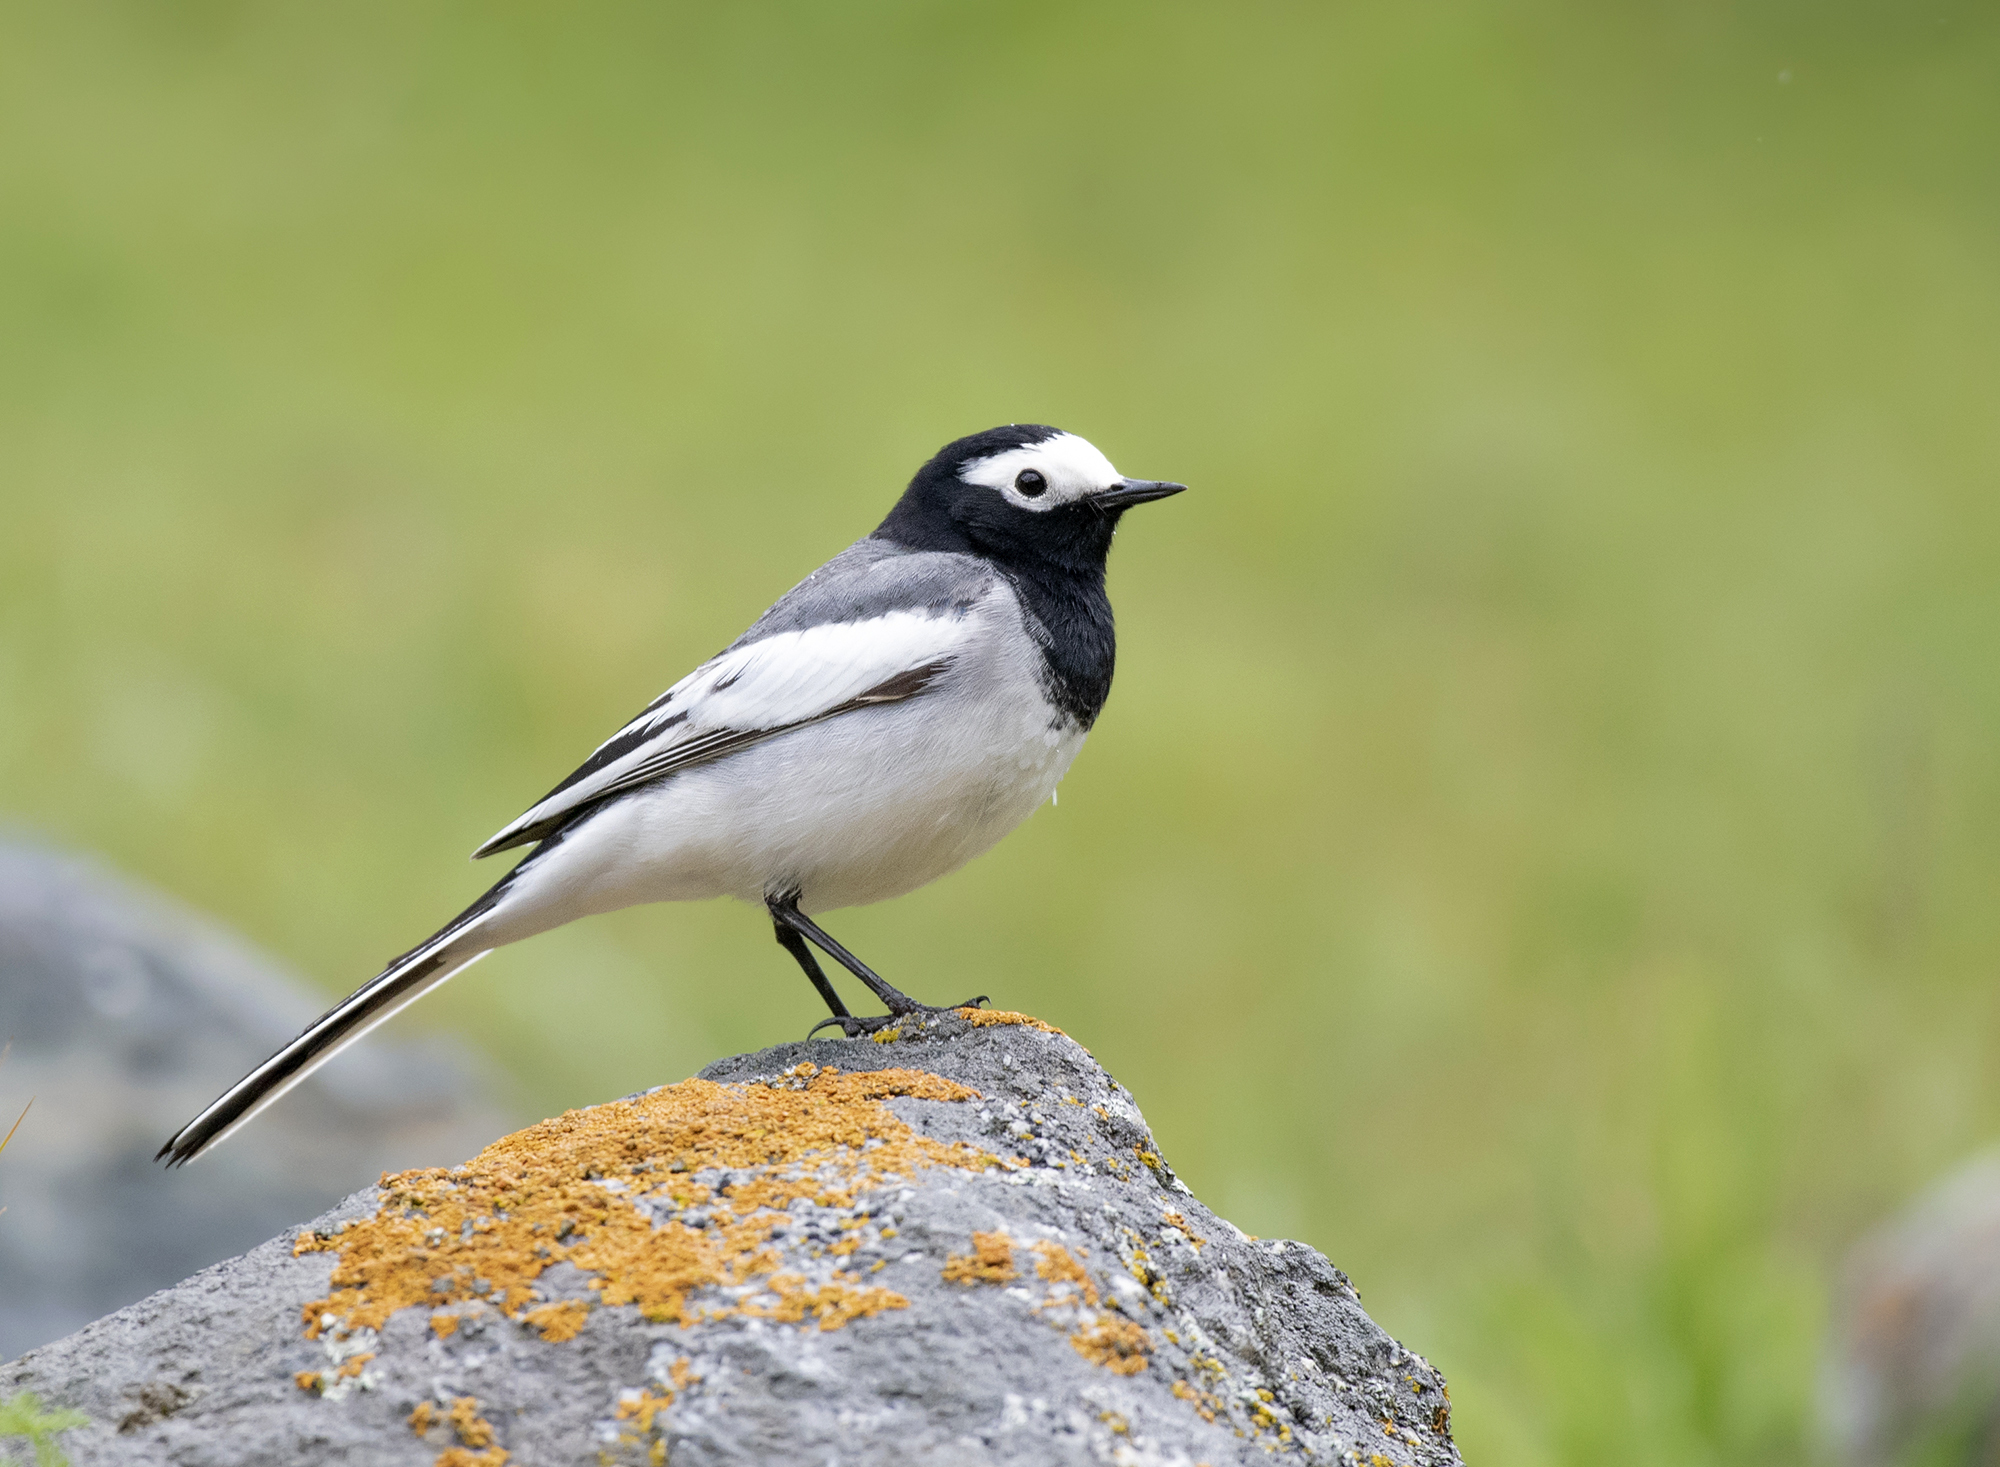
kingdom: Animalia
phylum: Chordata
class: Aves
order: Passeriformes
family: Motacillidae
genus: Motacilla
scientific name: Motacilla alba
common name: White wagtail
